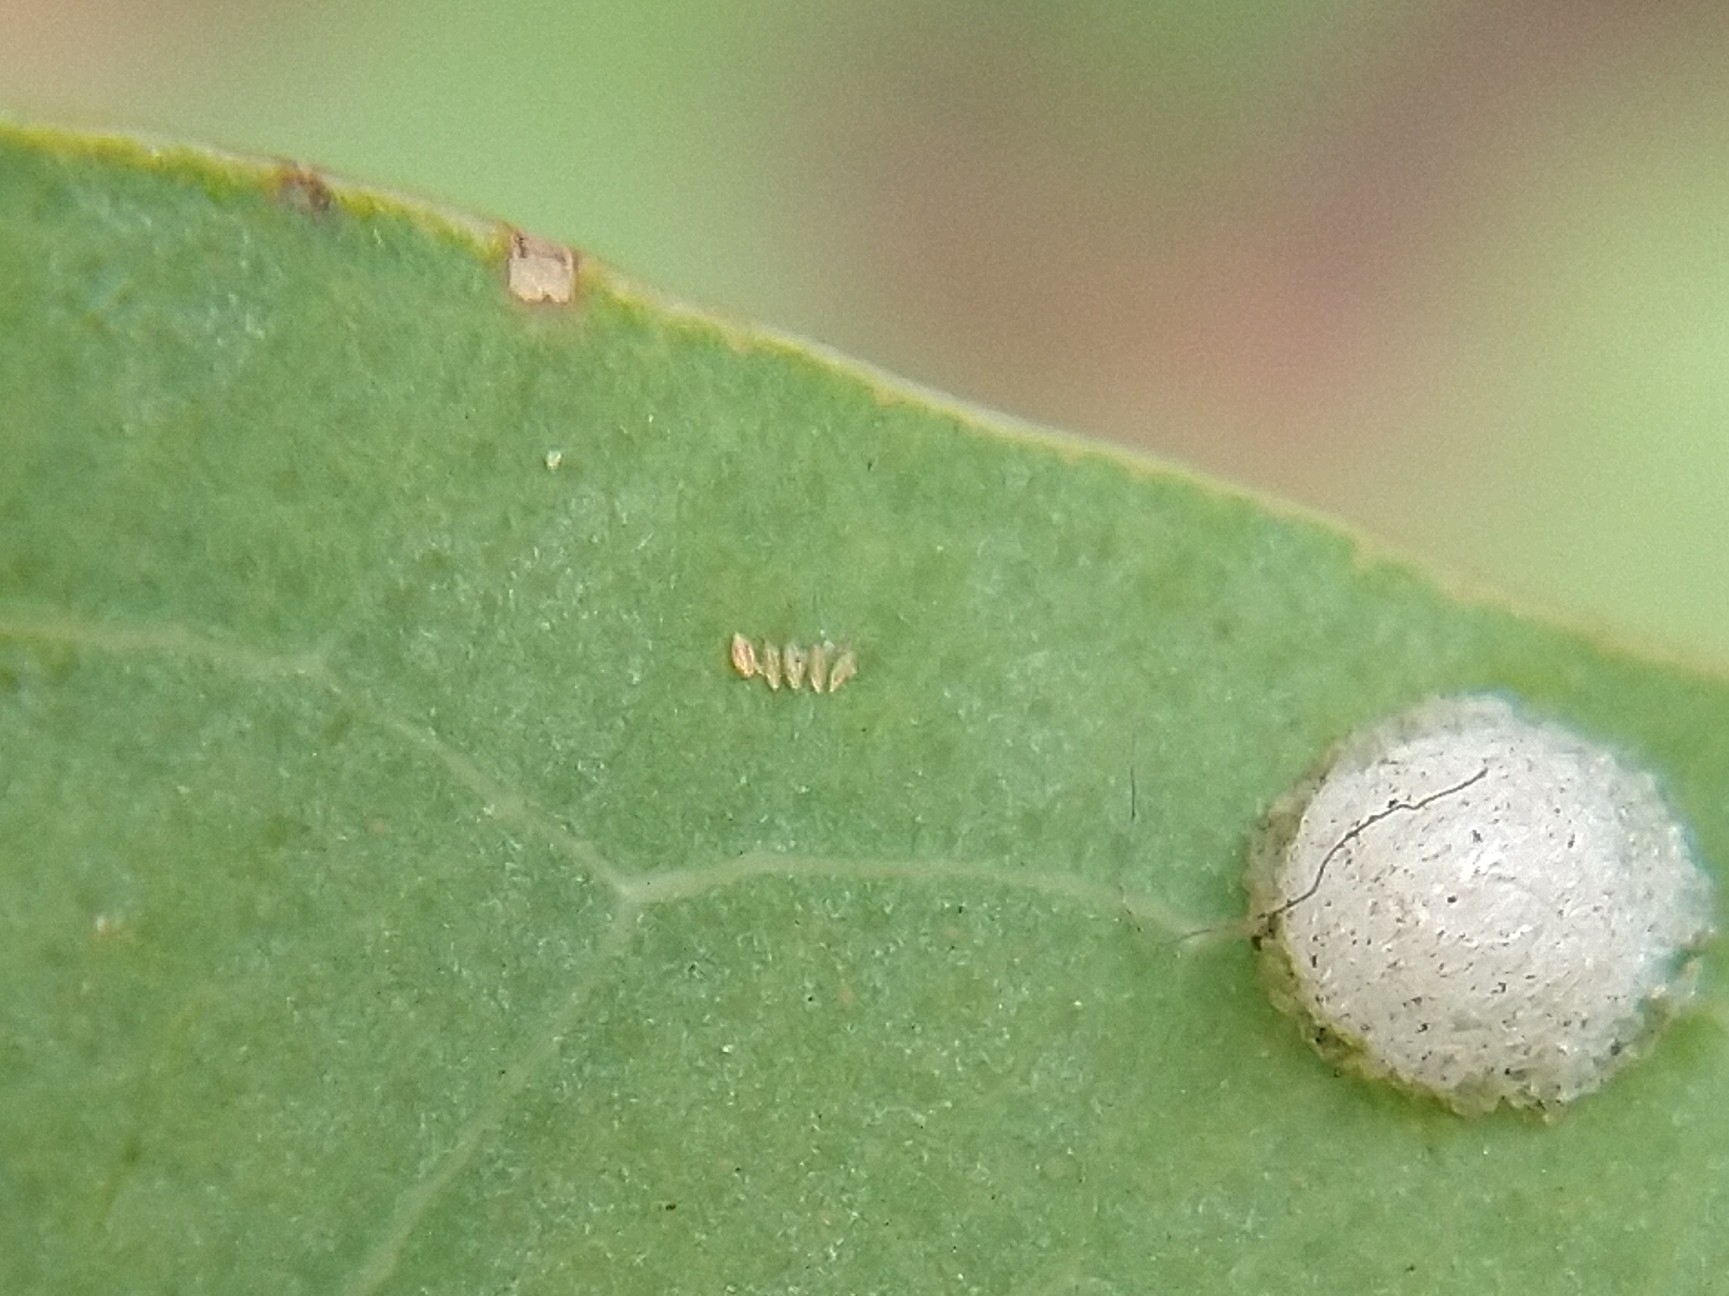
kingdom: Animalia
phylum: Arthropoda
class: Insecta
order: Hemiptera
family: Aphalaridae
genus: Glycaspis
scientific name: Glycaspis brimblecombei
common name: Red gum lerp psyllid
